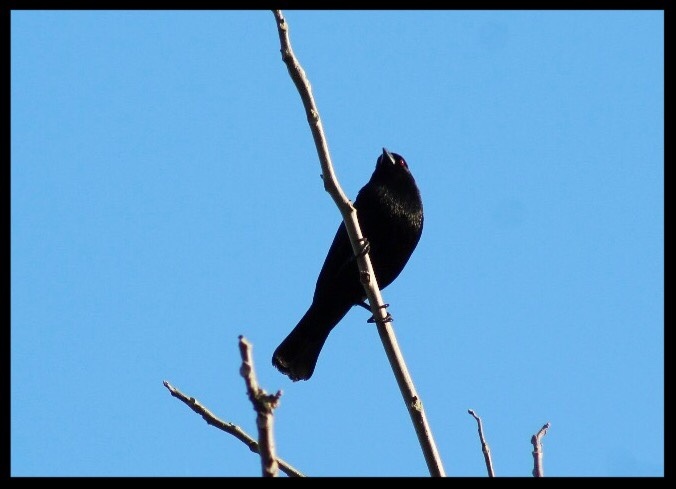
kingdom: Animalia
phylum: Chordata
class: Aves
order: Passeriformes
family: Icteridae
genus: Molothrus
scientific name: Molothrus aeneus
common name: Bronzed cowbird
